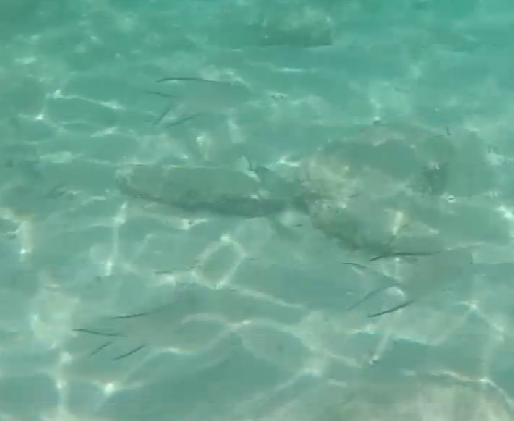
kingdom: Animalia
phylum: Chordata
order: Perciformes
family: Carangidae
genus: Trachinotus
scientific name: Trachinotus goodei
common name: Palometa
